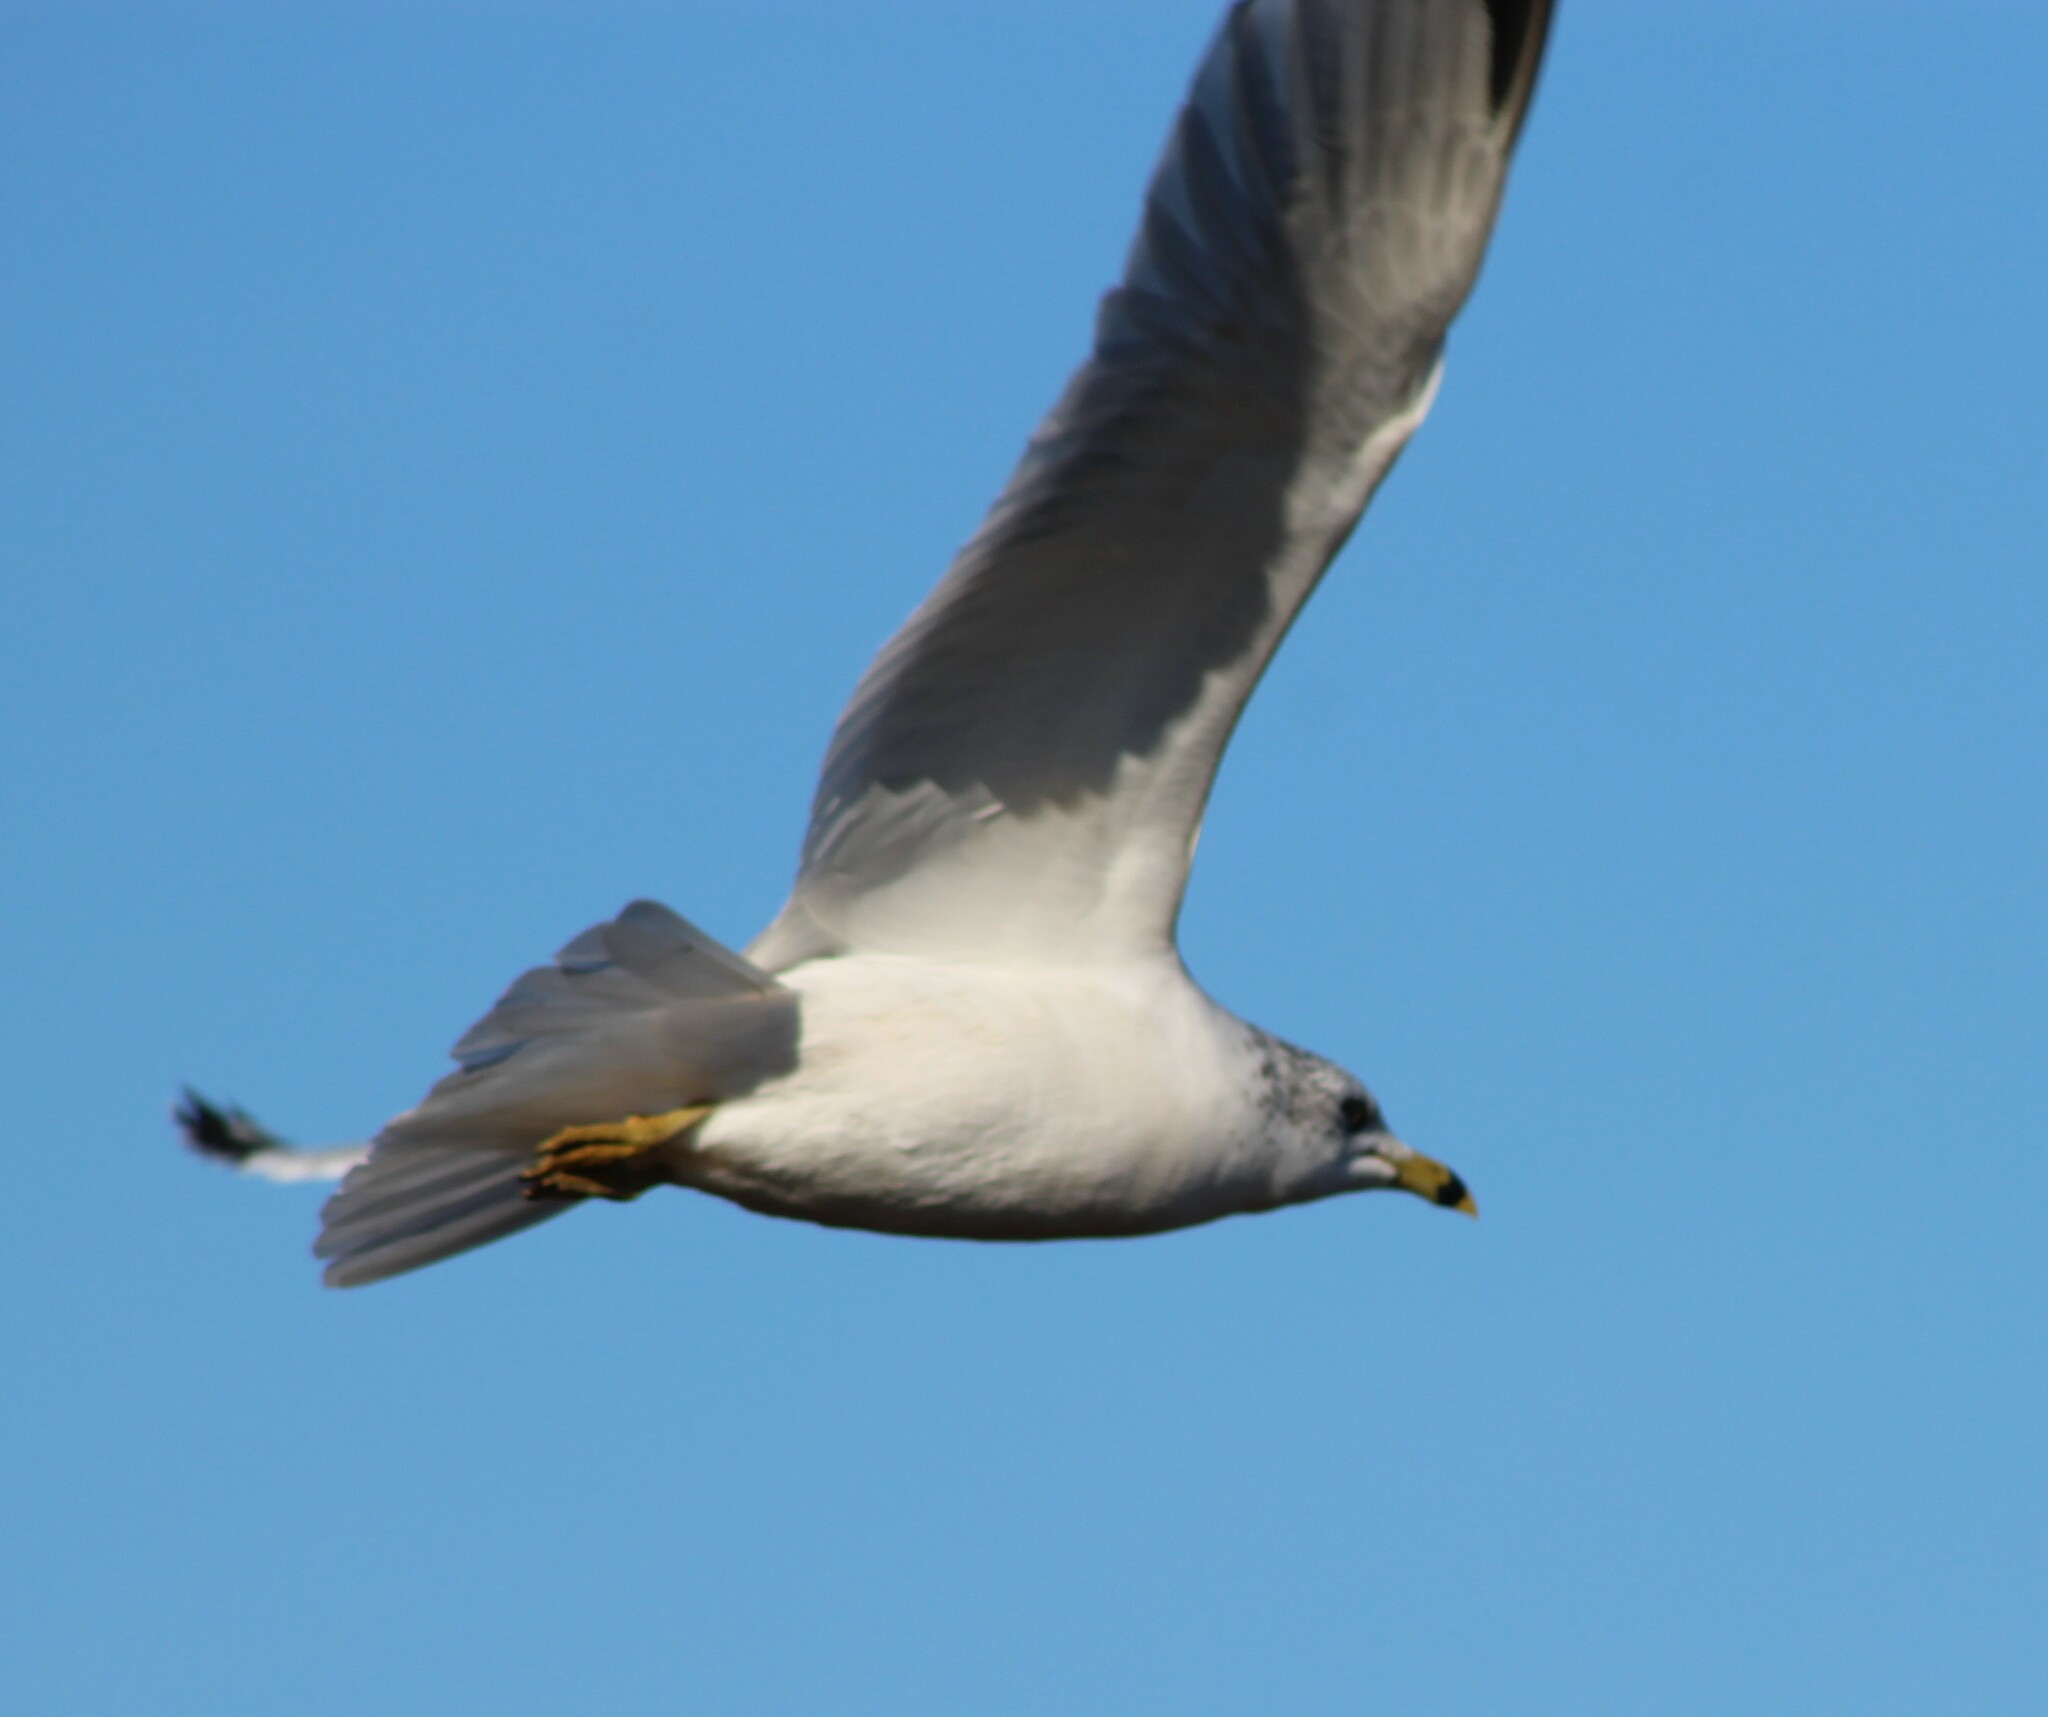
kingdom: Animalia
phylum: Chordata
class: Aves
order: Charadriiformes
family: Laridae
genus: Larus
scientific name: Larus delawarensis
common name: Ring-billed gull
